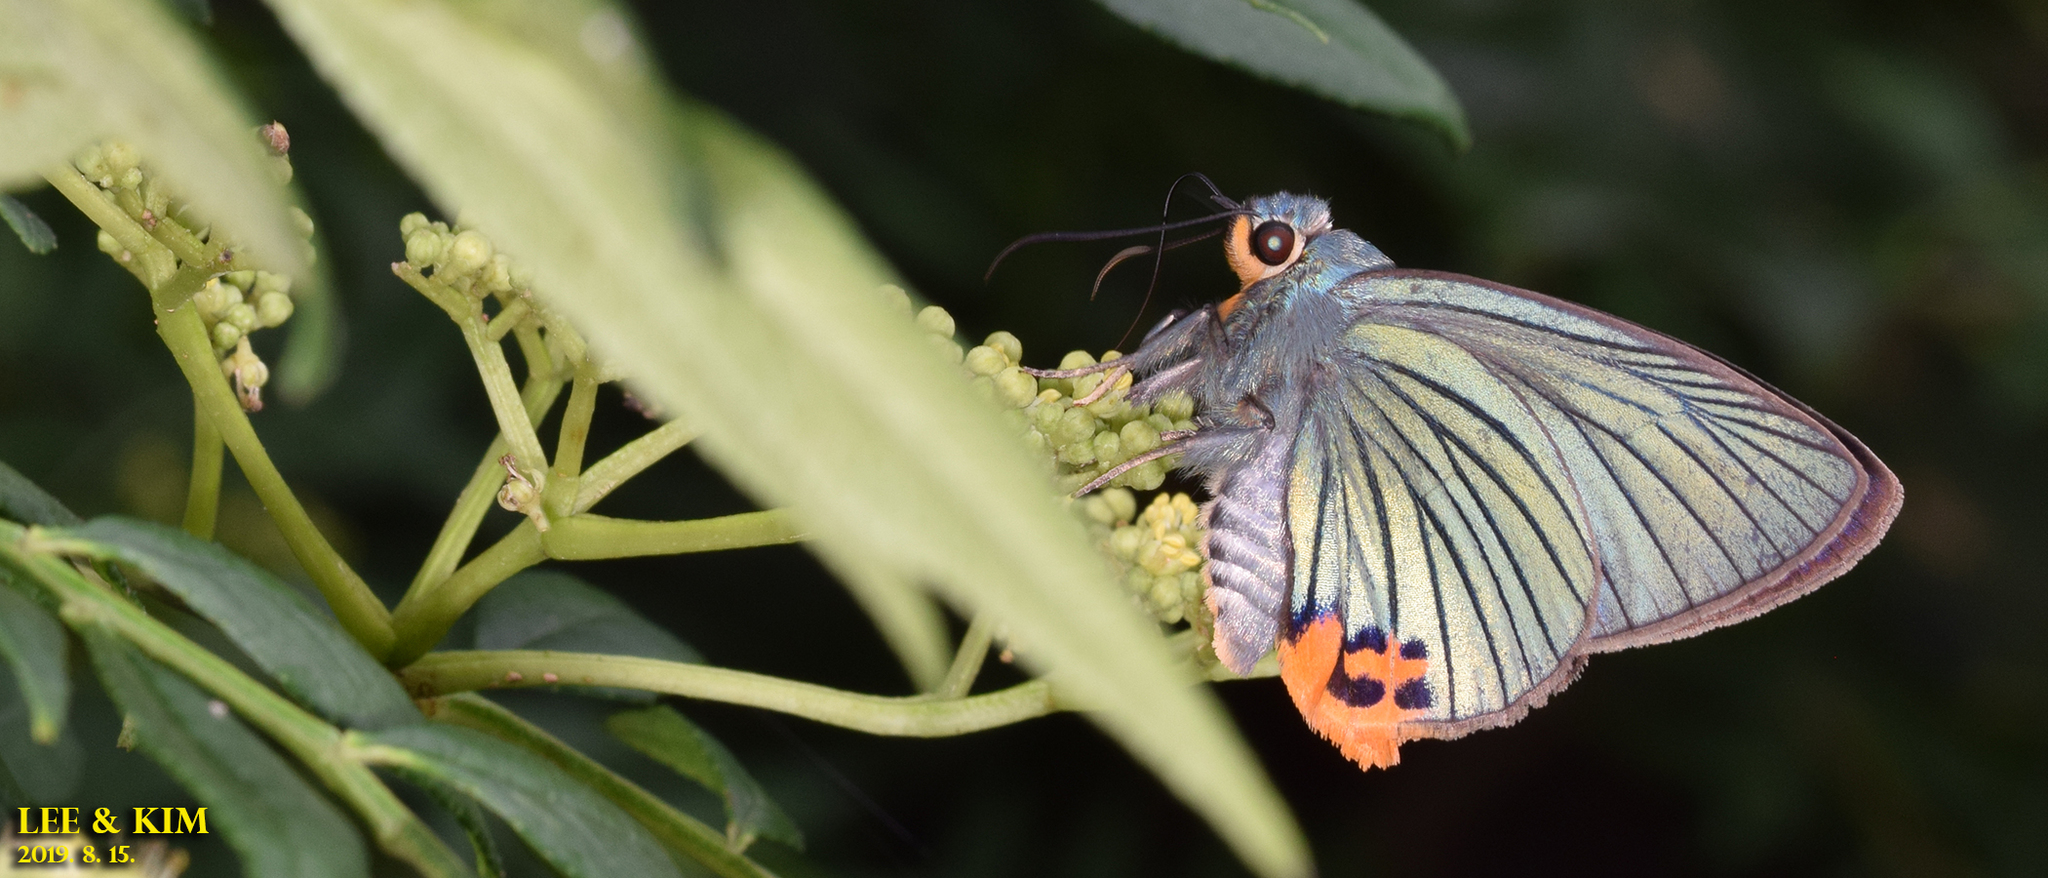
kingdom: Animalia
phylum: Arthropoda
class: Insecta
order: Lepidoptera
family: Hesperiidae
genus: Choaspes
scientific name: Choaspes benjaminii
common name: Indian awlking
